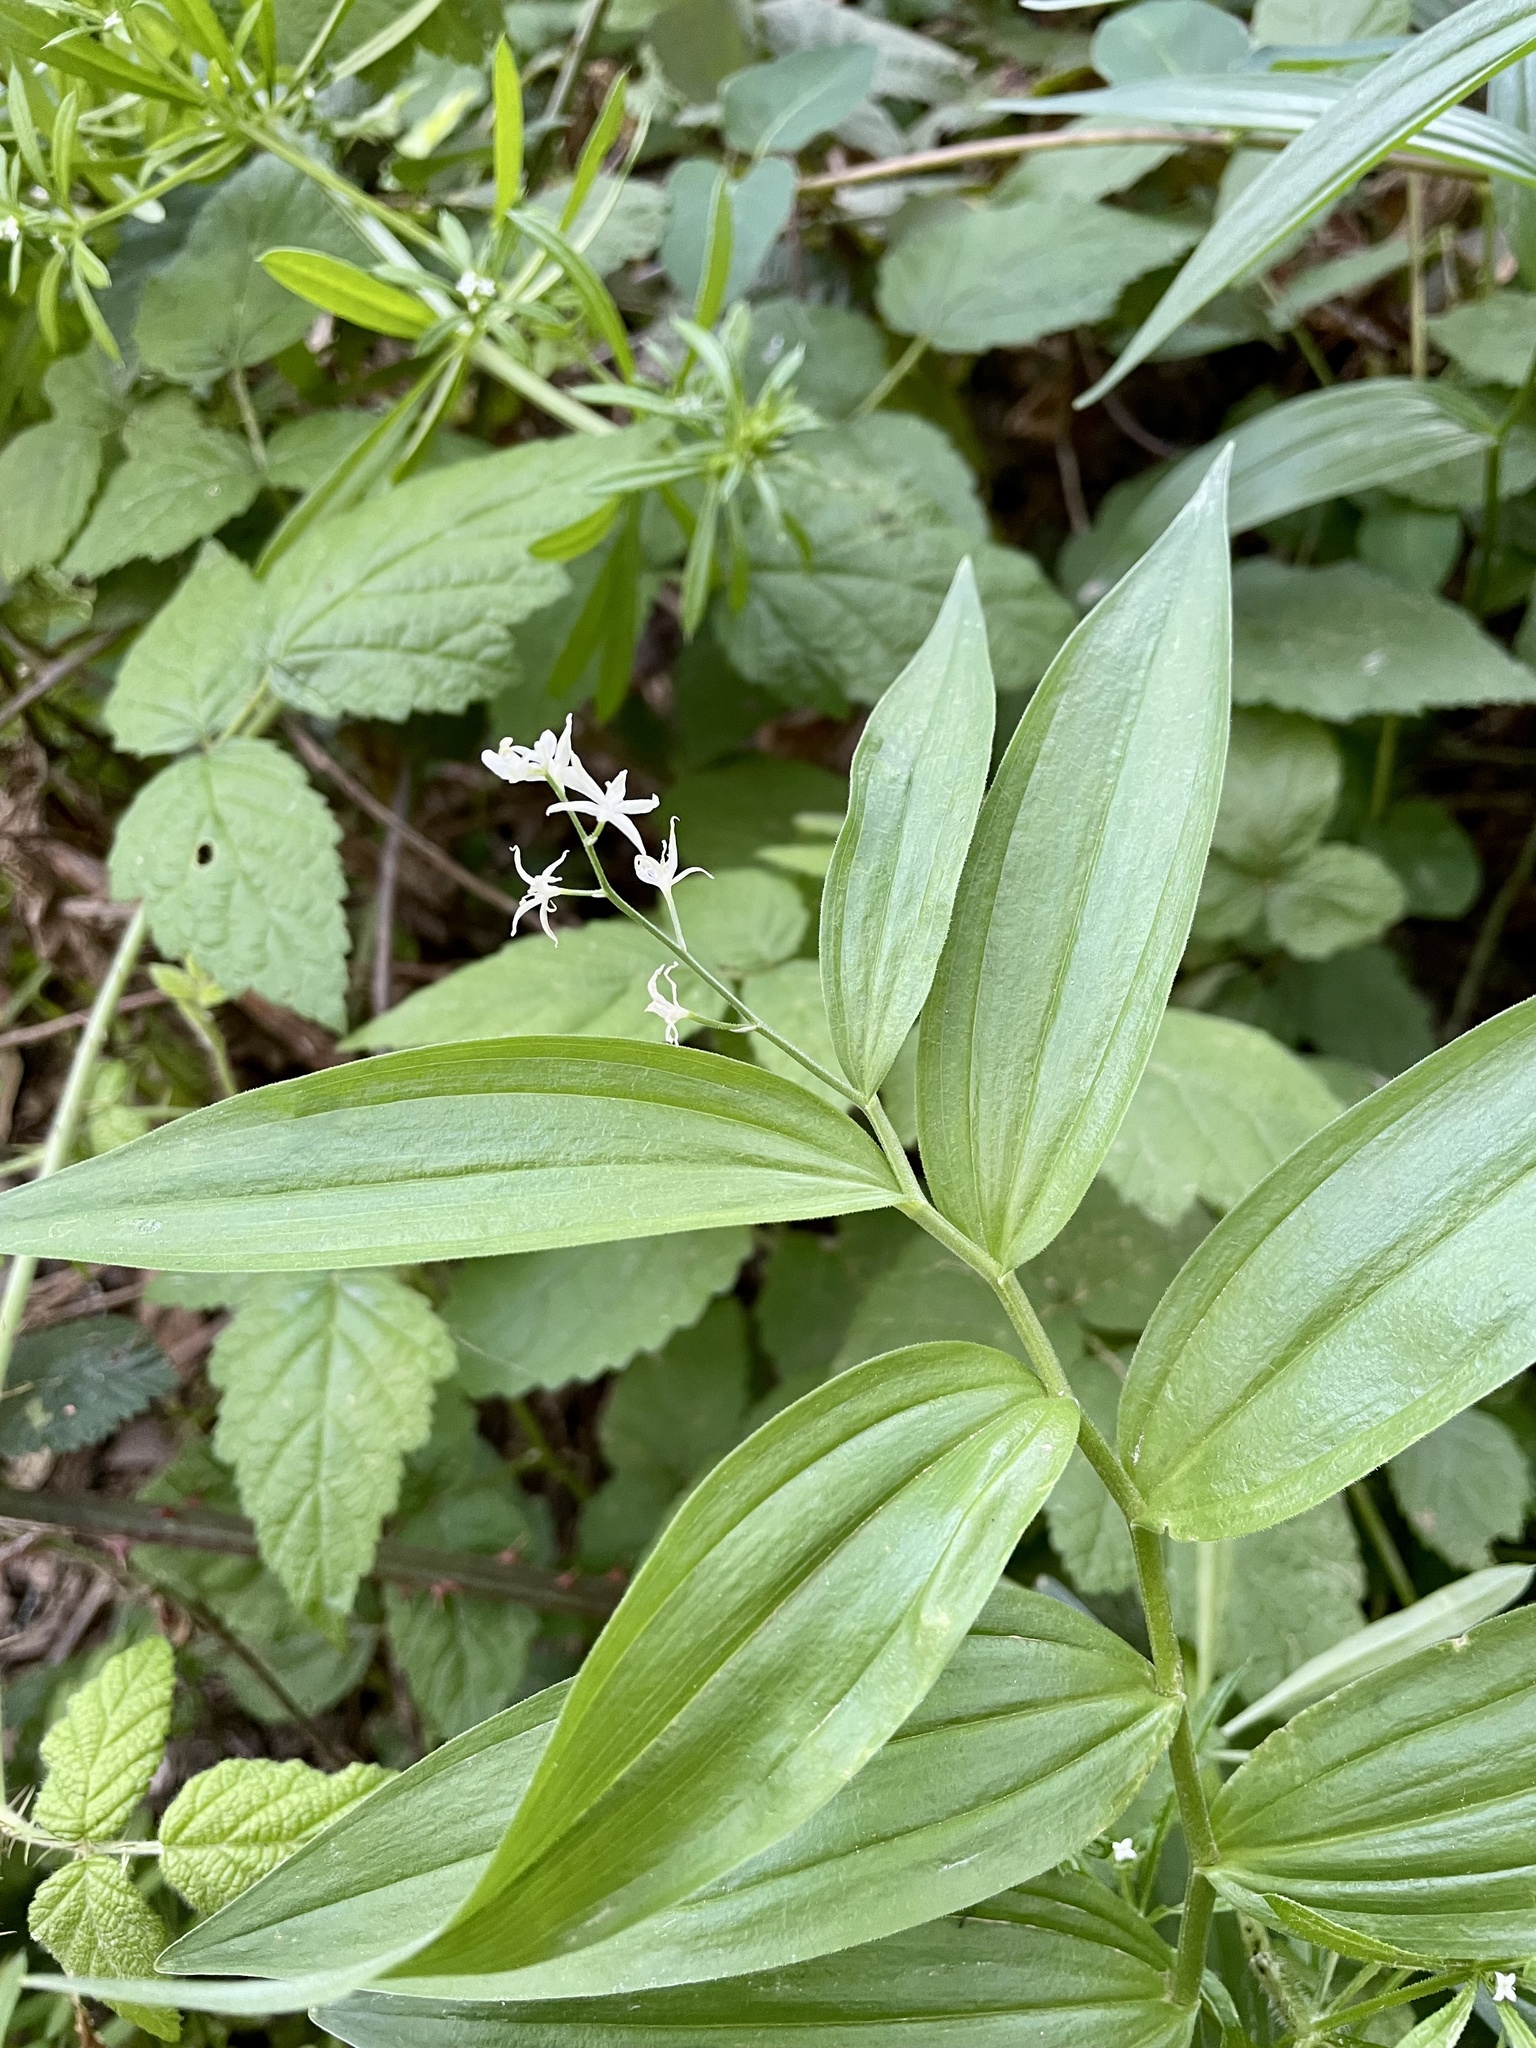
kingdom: Plantae
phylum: Tracheophyta
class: Liliopsida
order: Asparagales
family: Asparagaceae
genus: Maianthemum
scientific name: Maianthemum stellatum
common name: Little false solomon's seal
